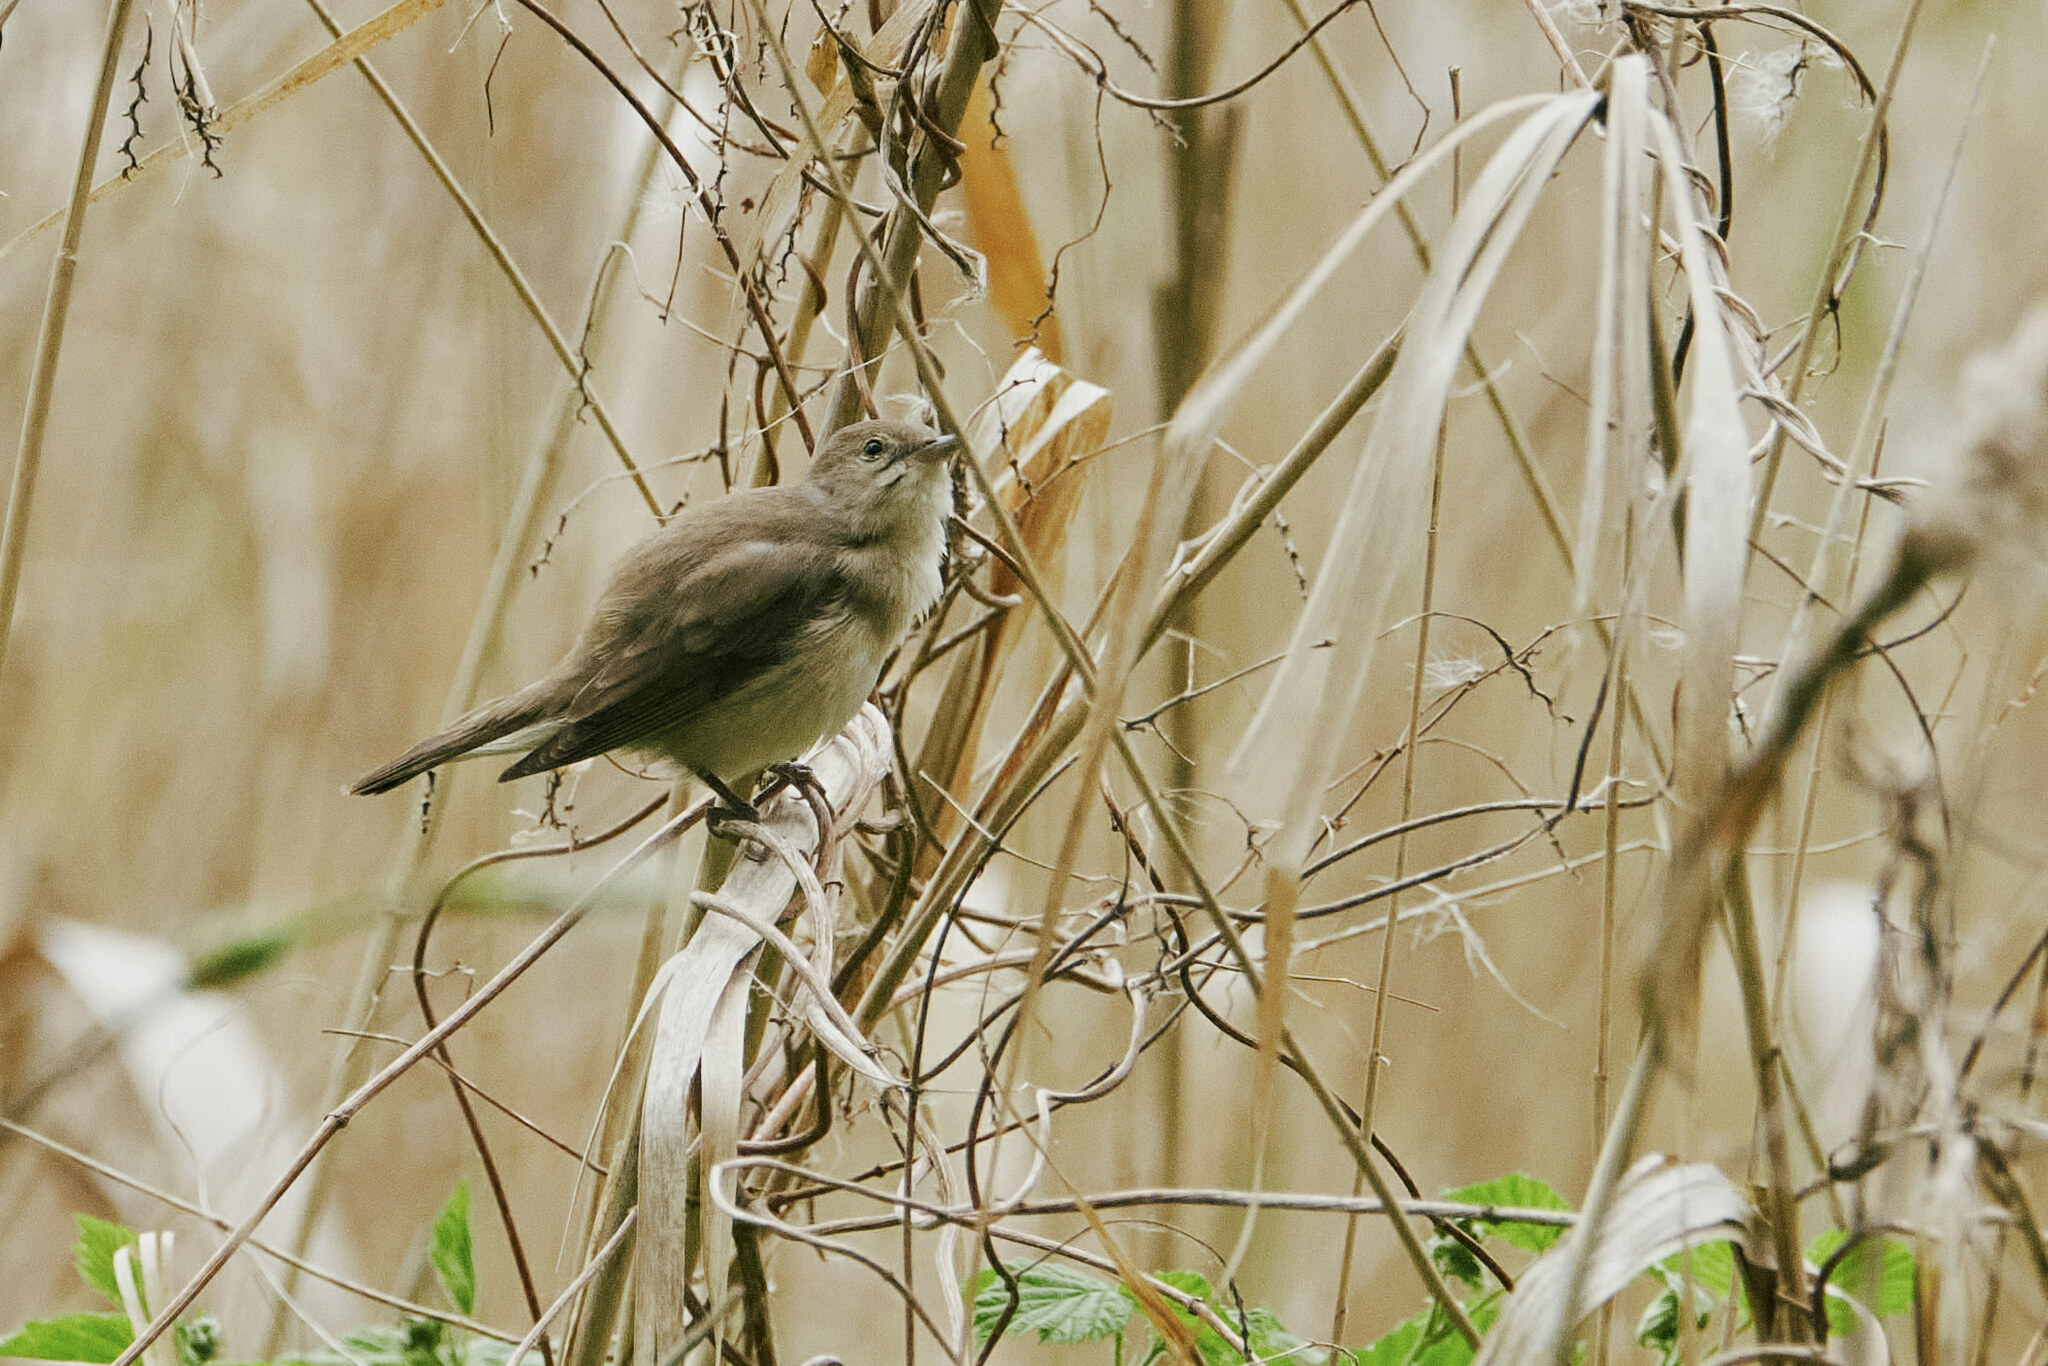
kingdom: Animalia
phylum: Chordata
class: Aves
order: Passeriformes
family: Sylviidae
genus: Sylvia
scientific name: Sylvia borin
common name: Garden warbler
